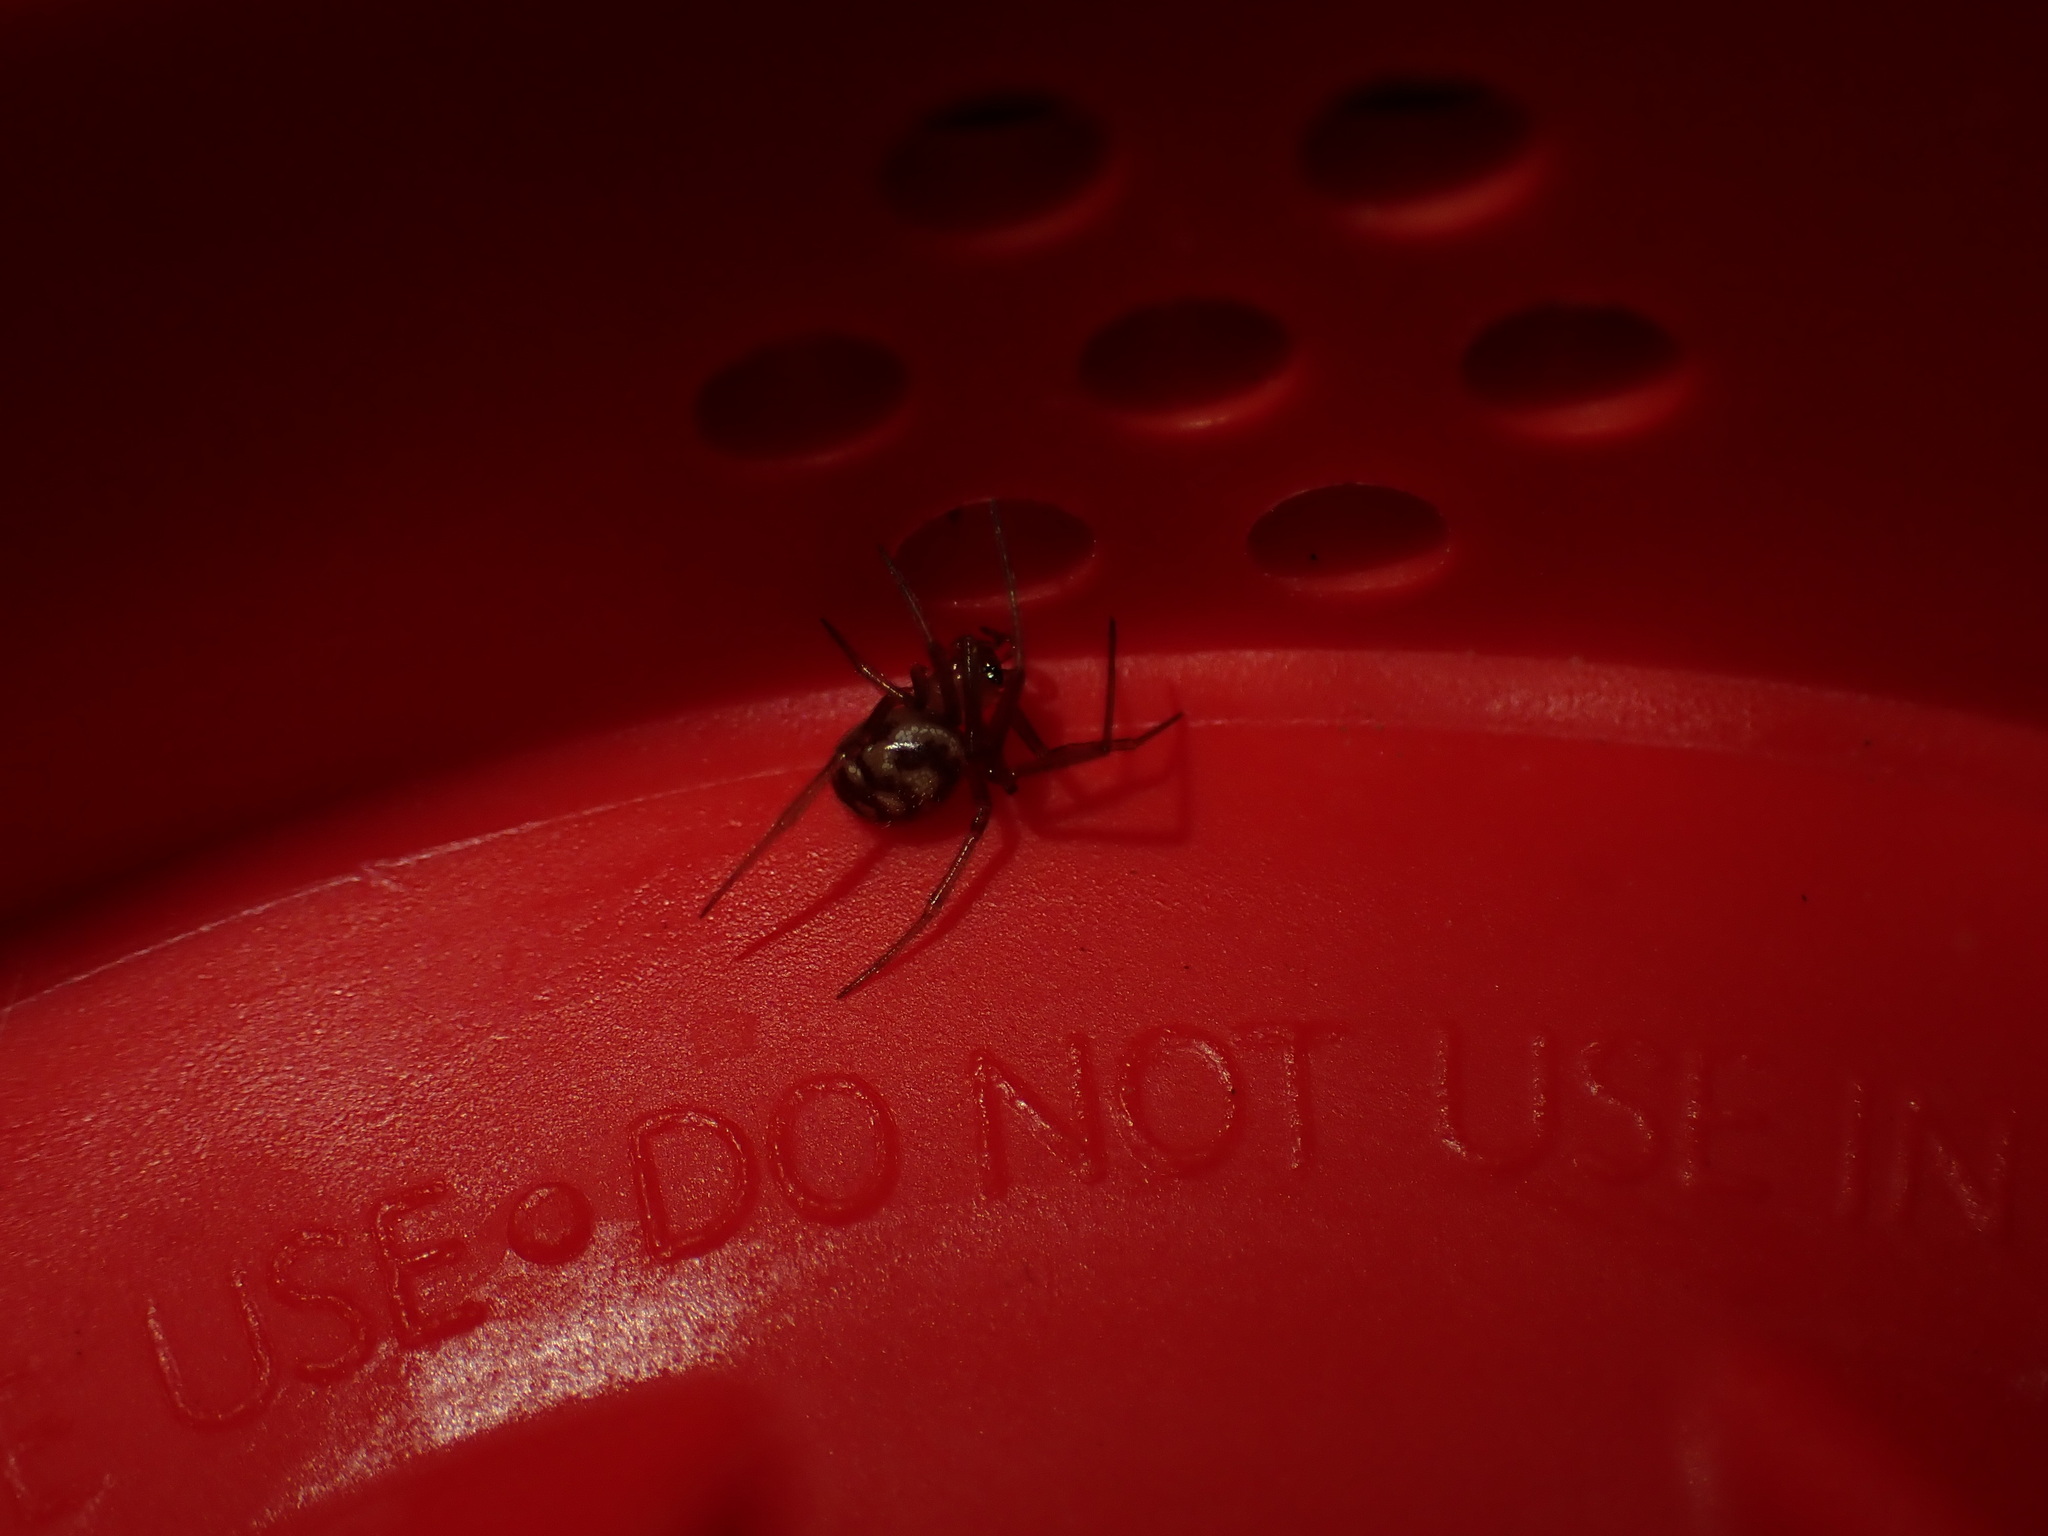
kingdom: Animalia
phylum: Arthropoda
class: Arachnida
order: Araneae
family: Theridiidae
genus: Steatoda
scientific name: Steatoda grossa
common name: False black widow
